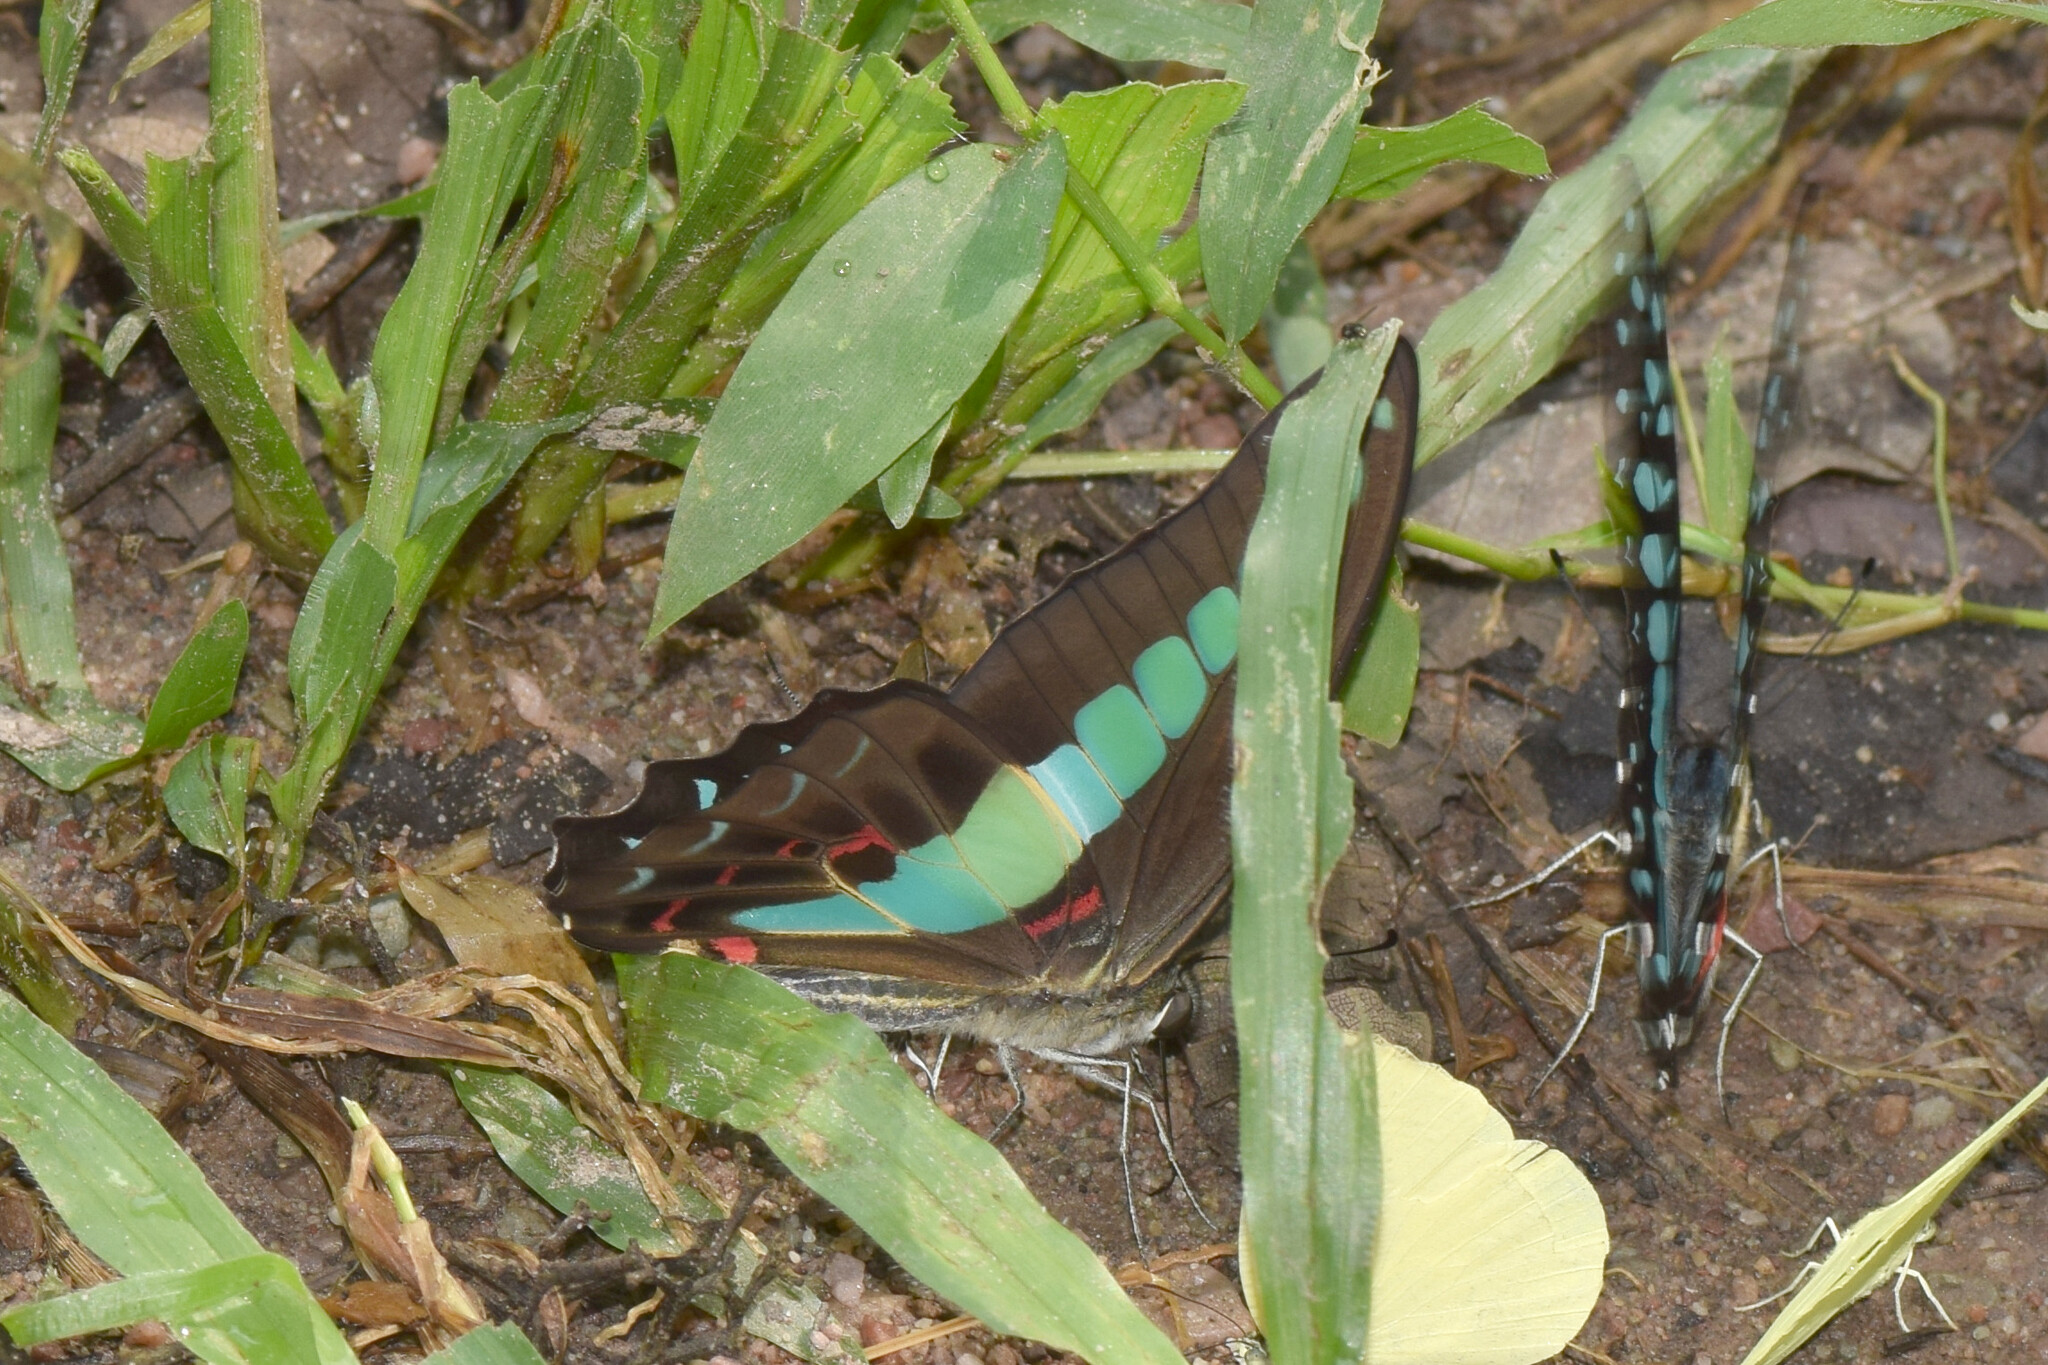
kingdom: Fungi
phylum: Ascomycota
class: Sordariomycetes
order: Microascales
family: Microascaceae
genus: Graphium
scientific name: Graphium sarpedon
